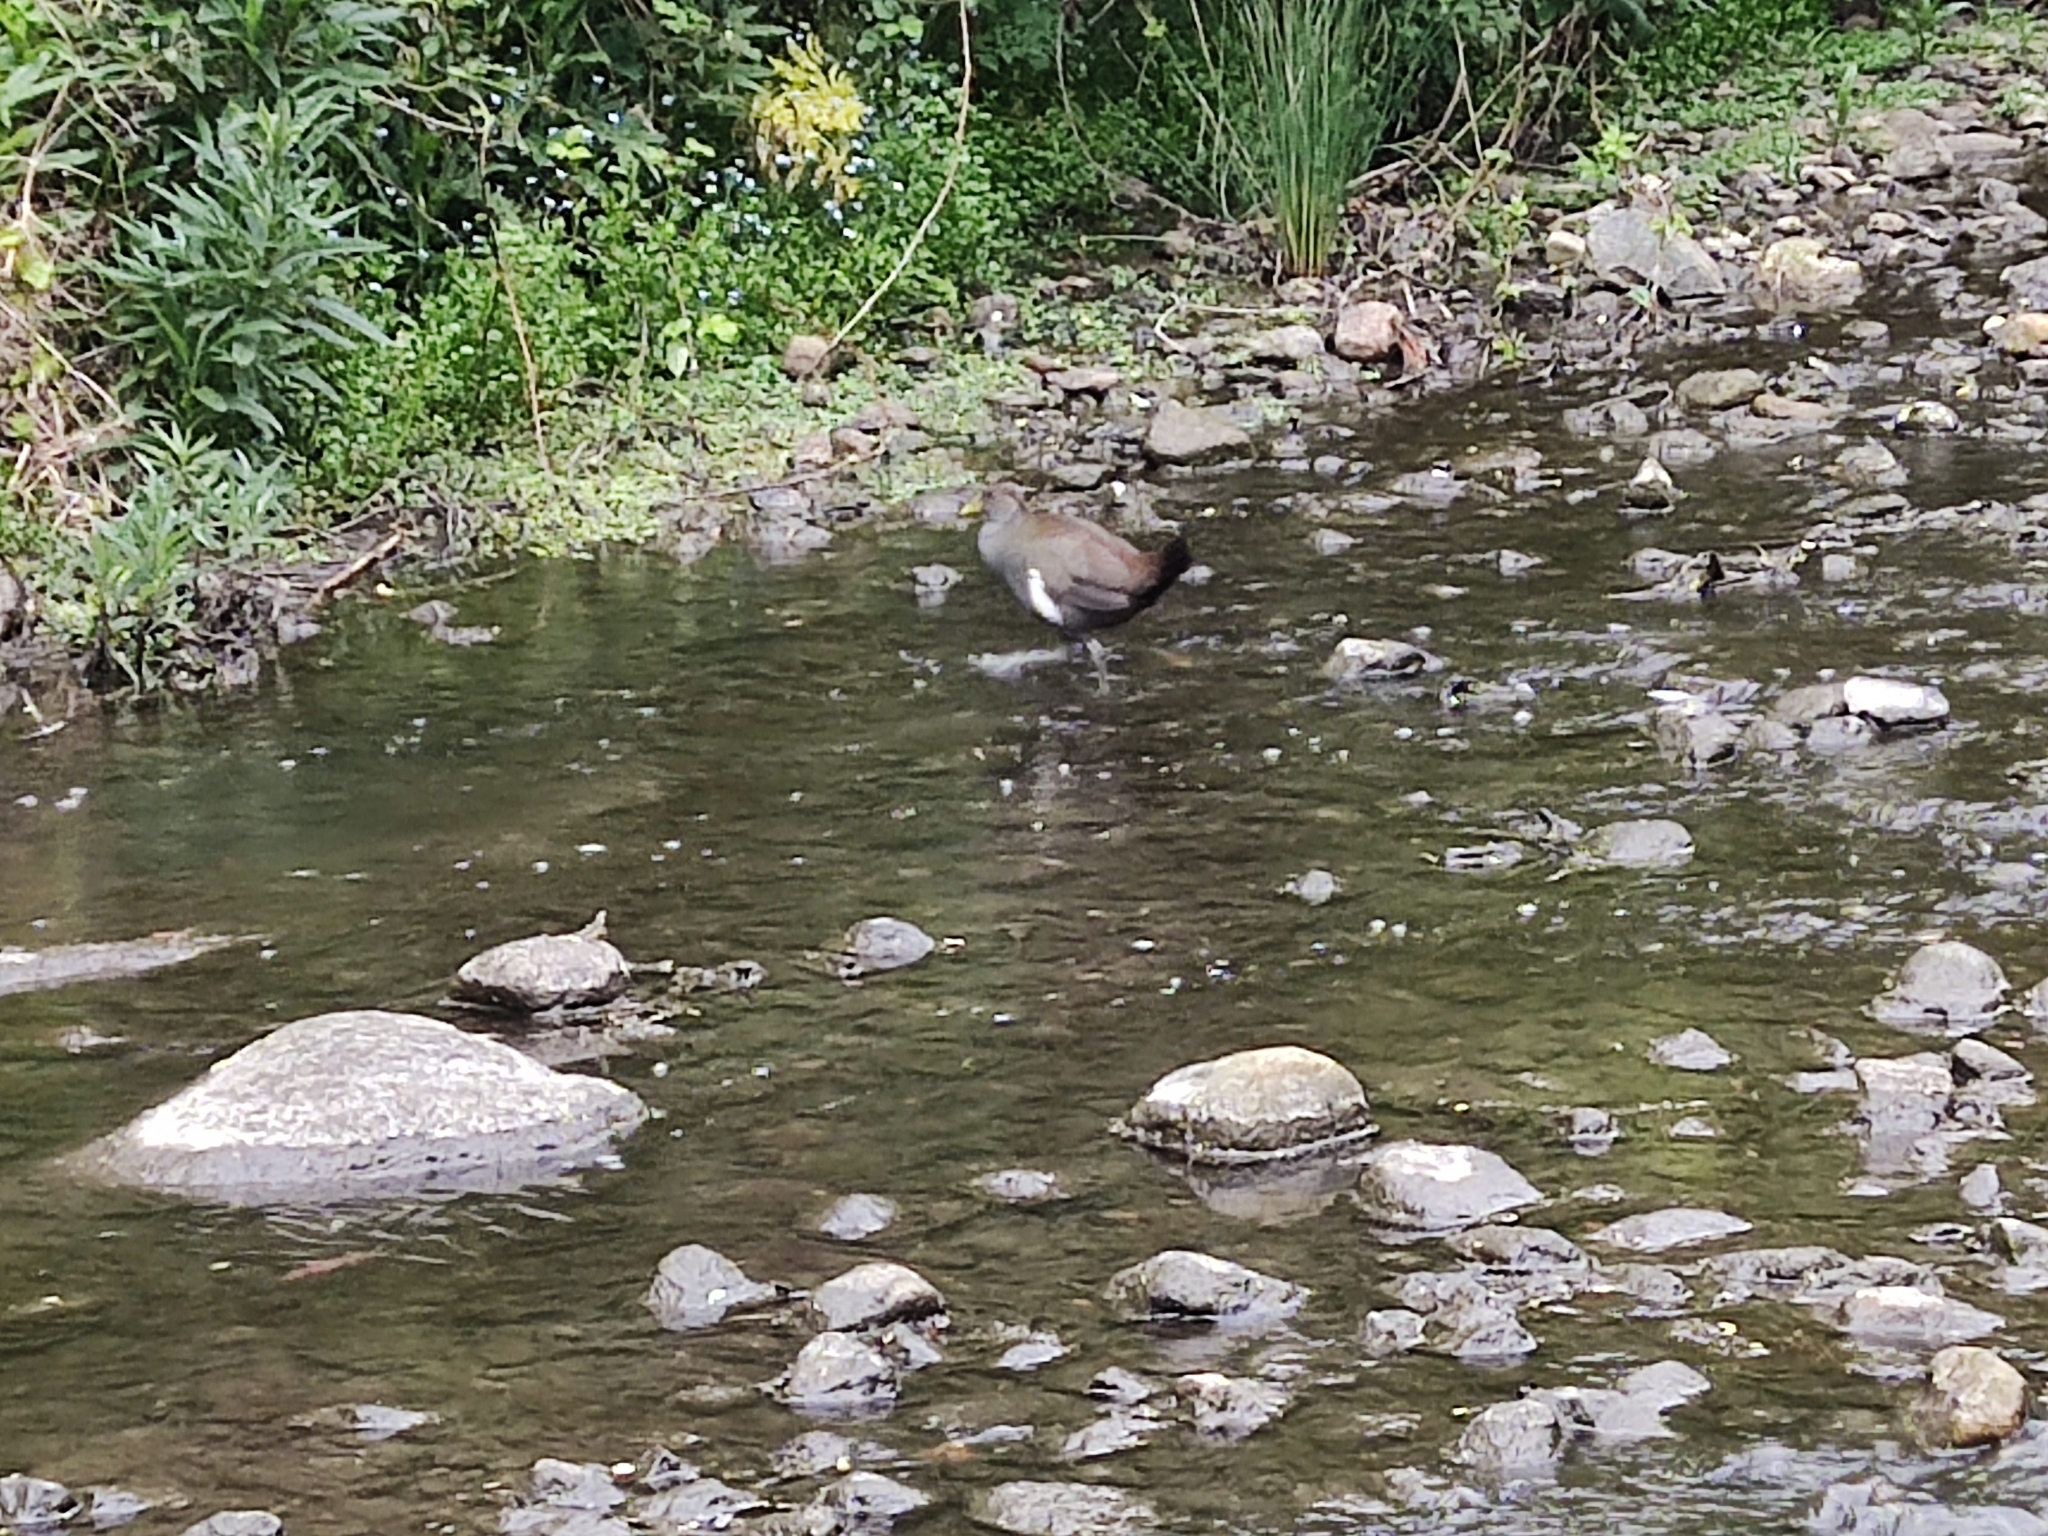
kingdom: Animalia
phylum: Chordata
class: Aves
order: Gruiformes
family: Rallidae
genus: Gallinula
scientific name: Gallinula mortierii
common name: Tasmanian nativehen
